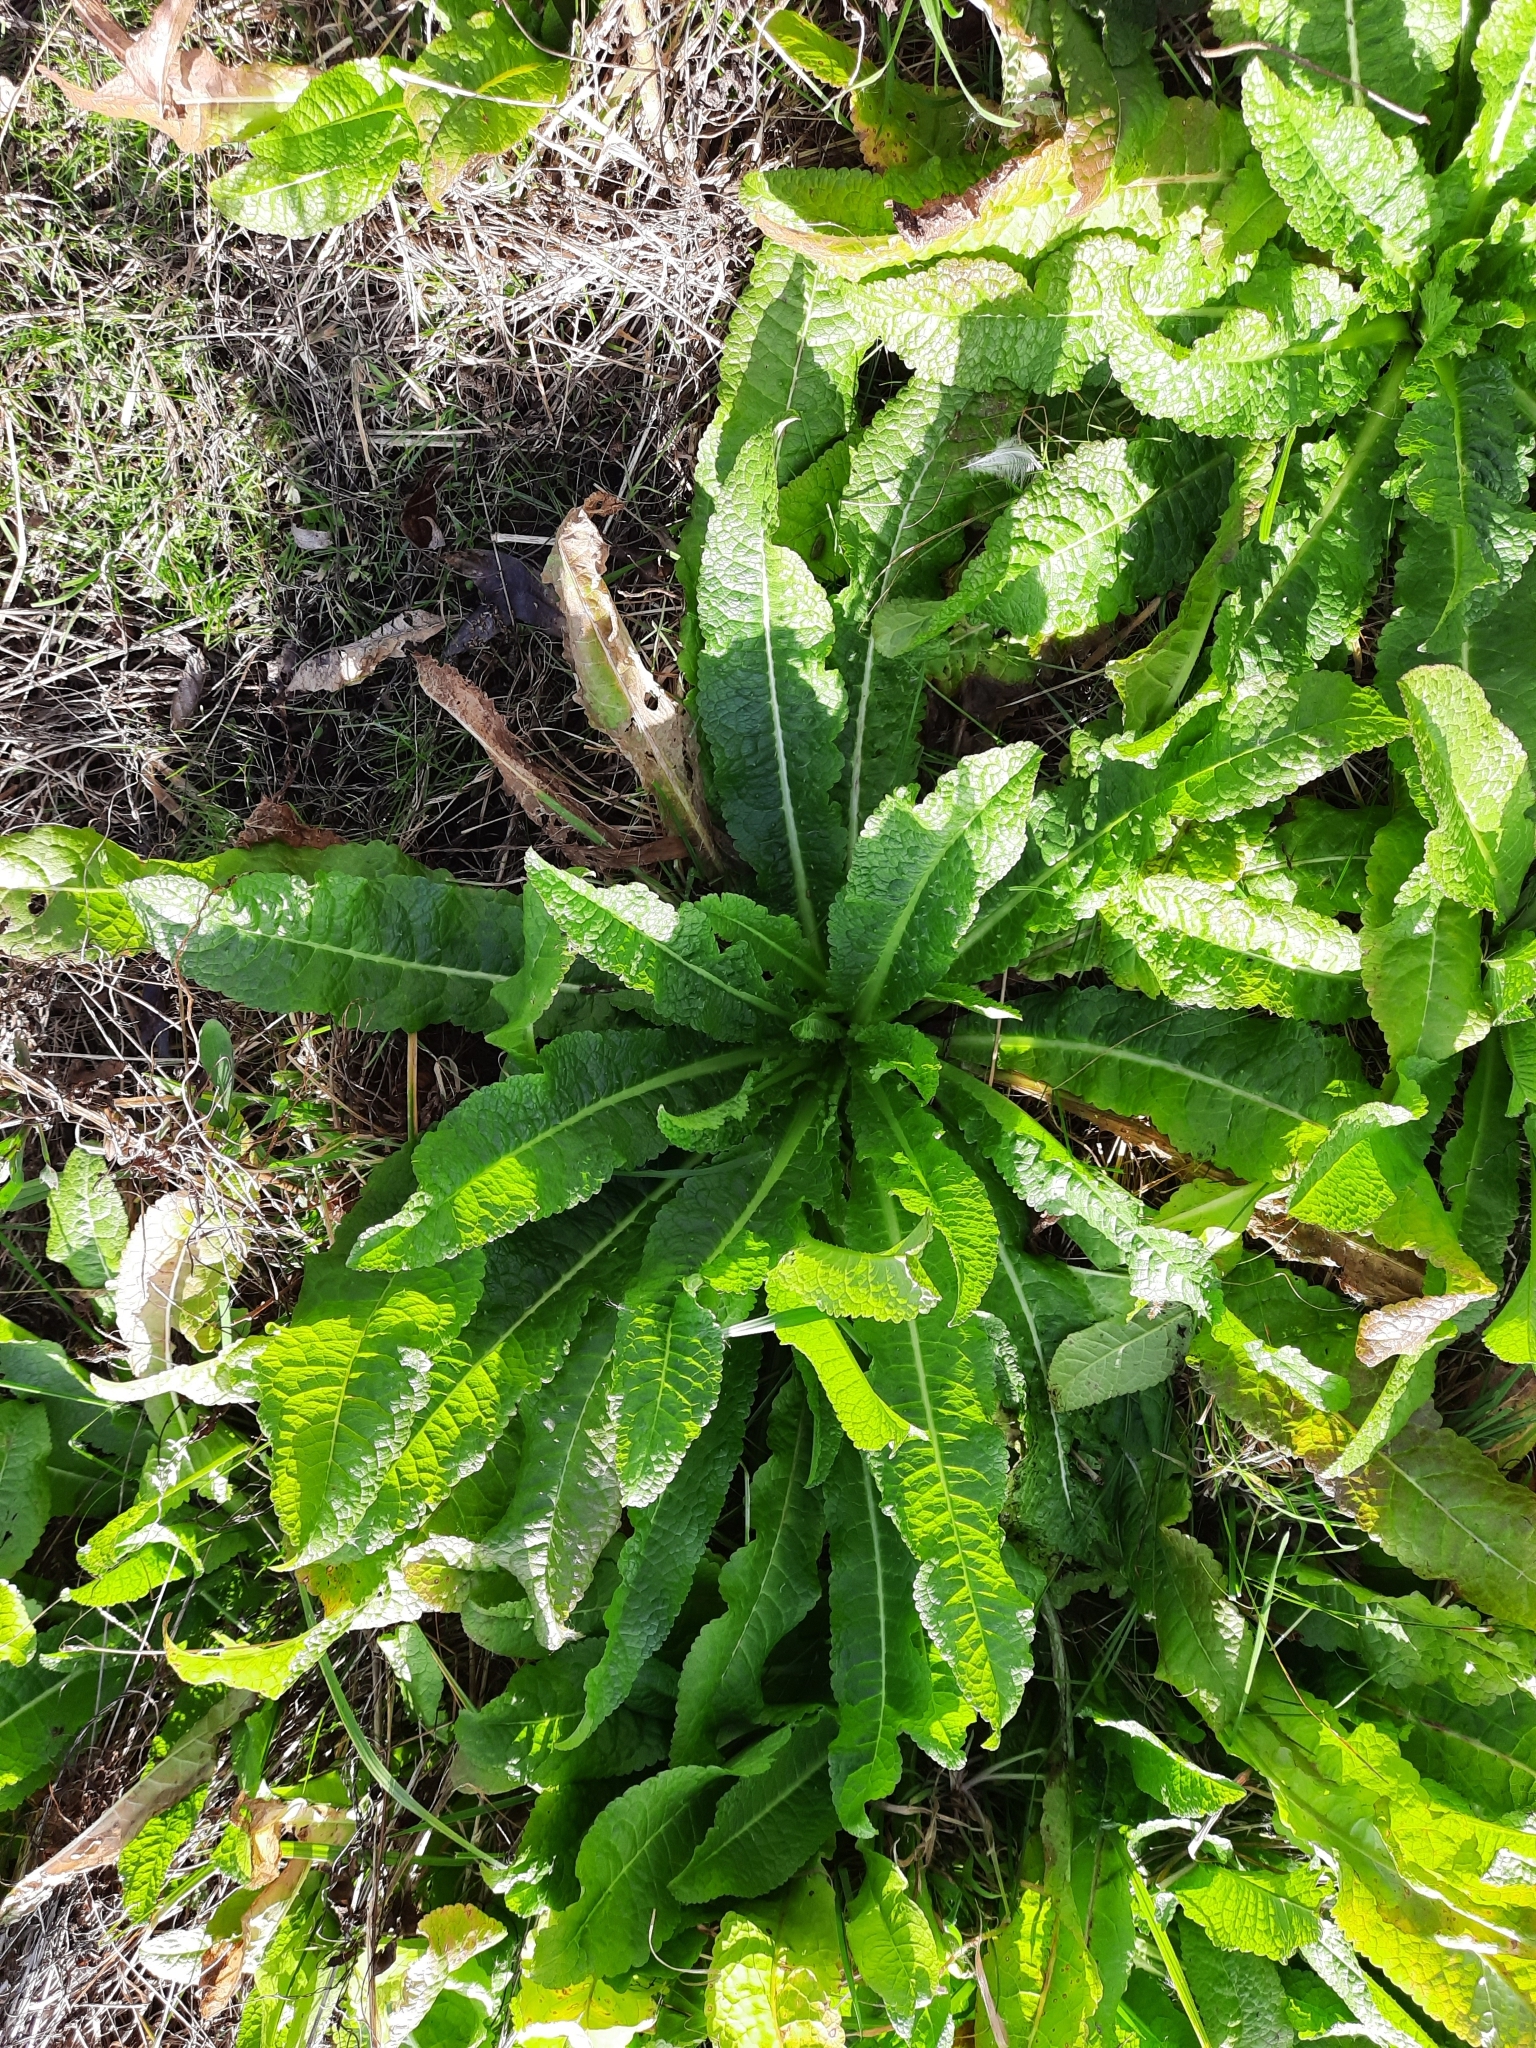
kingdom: Plantae
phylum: Tracheophyta
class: Magnoliopsida
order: Dipsacales
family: Caprifoliaceae
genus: Dipsacus
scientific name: Dipsacus fullonum
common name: Teasel
